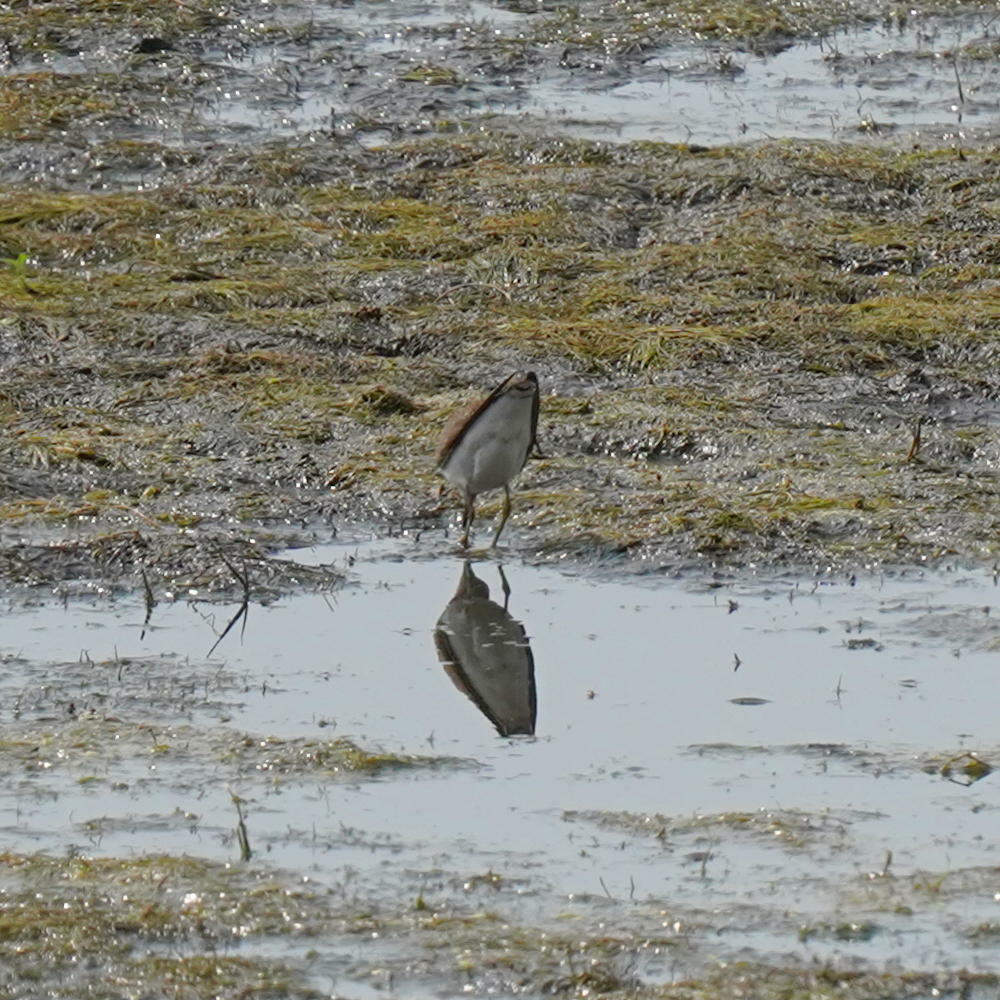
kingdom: Animalia
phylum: Chordata
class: Aves
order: Charadriiformes
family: Scolopacidae
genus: Tringa
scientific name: Tringa solitaria
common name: Solitary sandpiper
